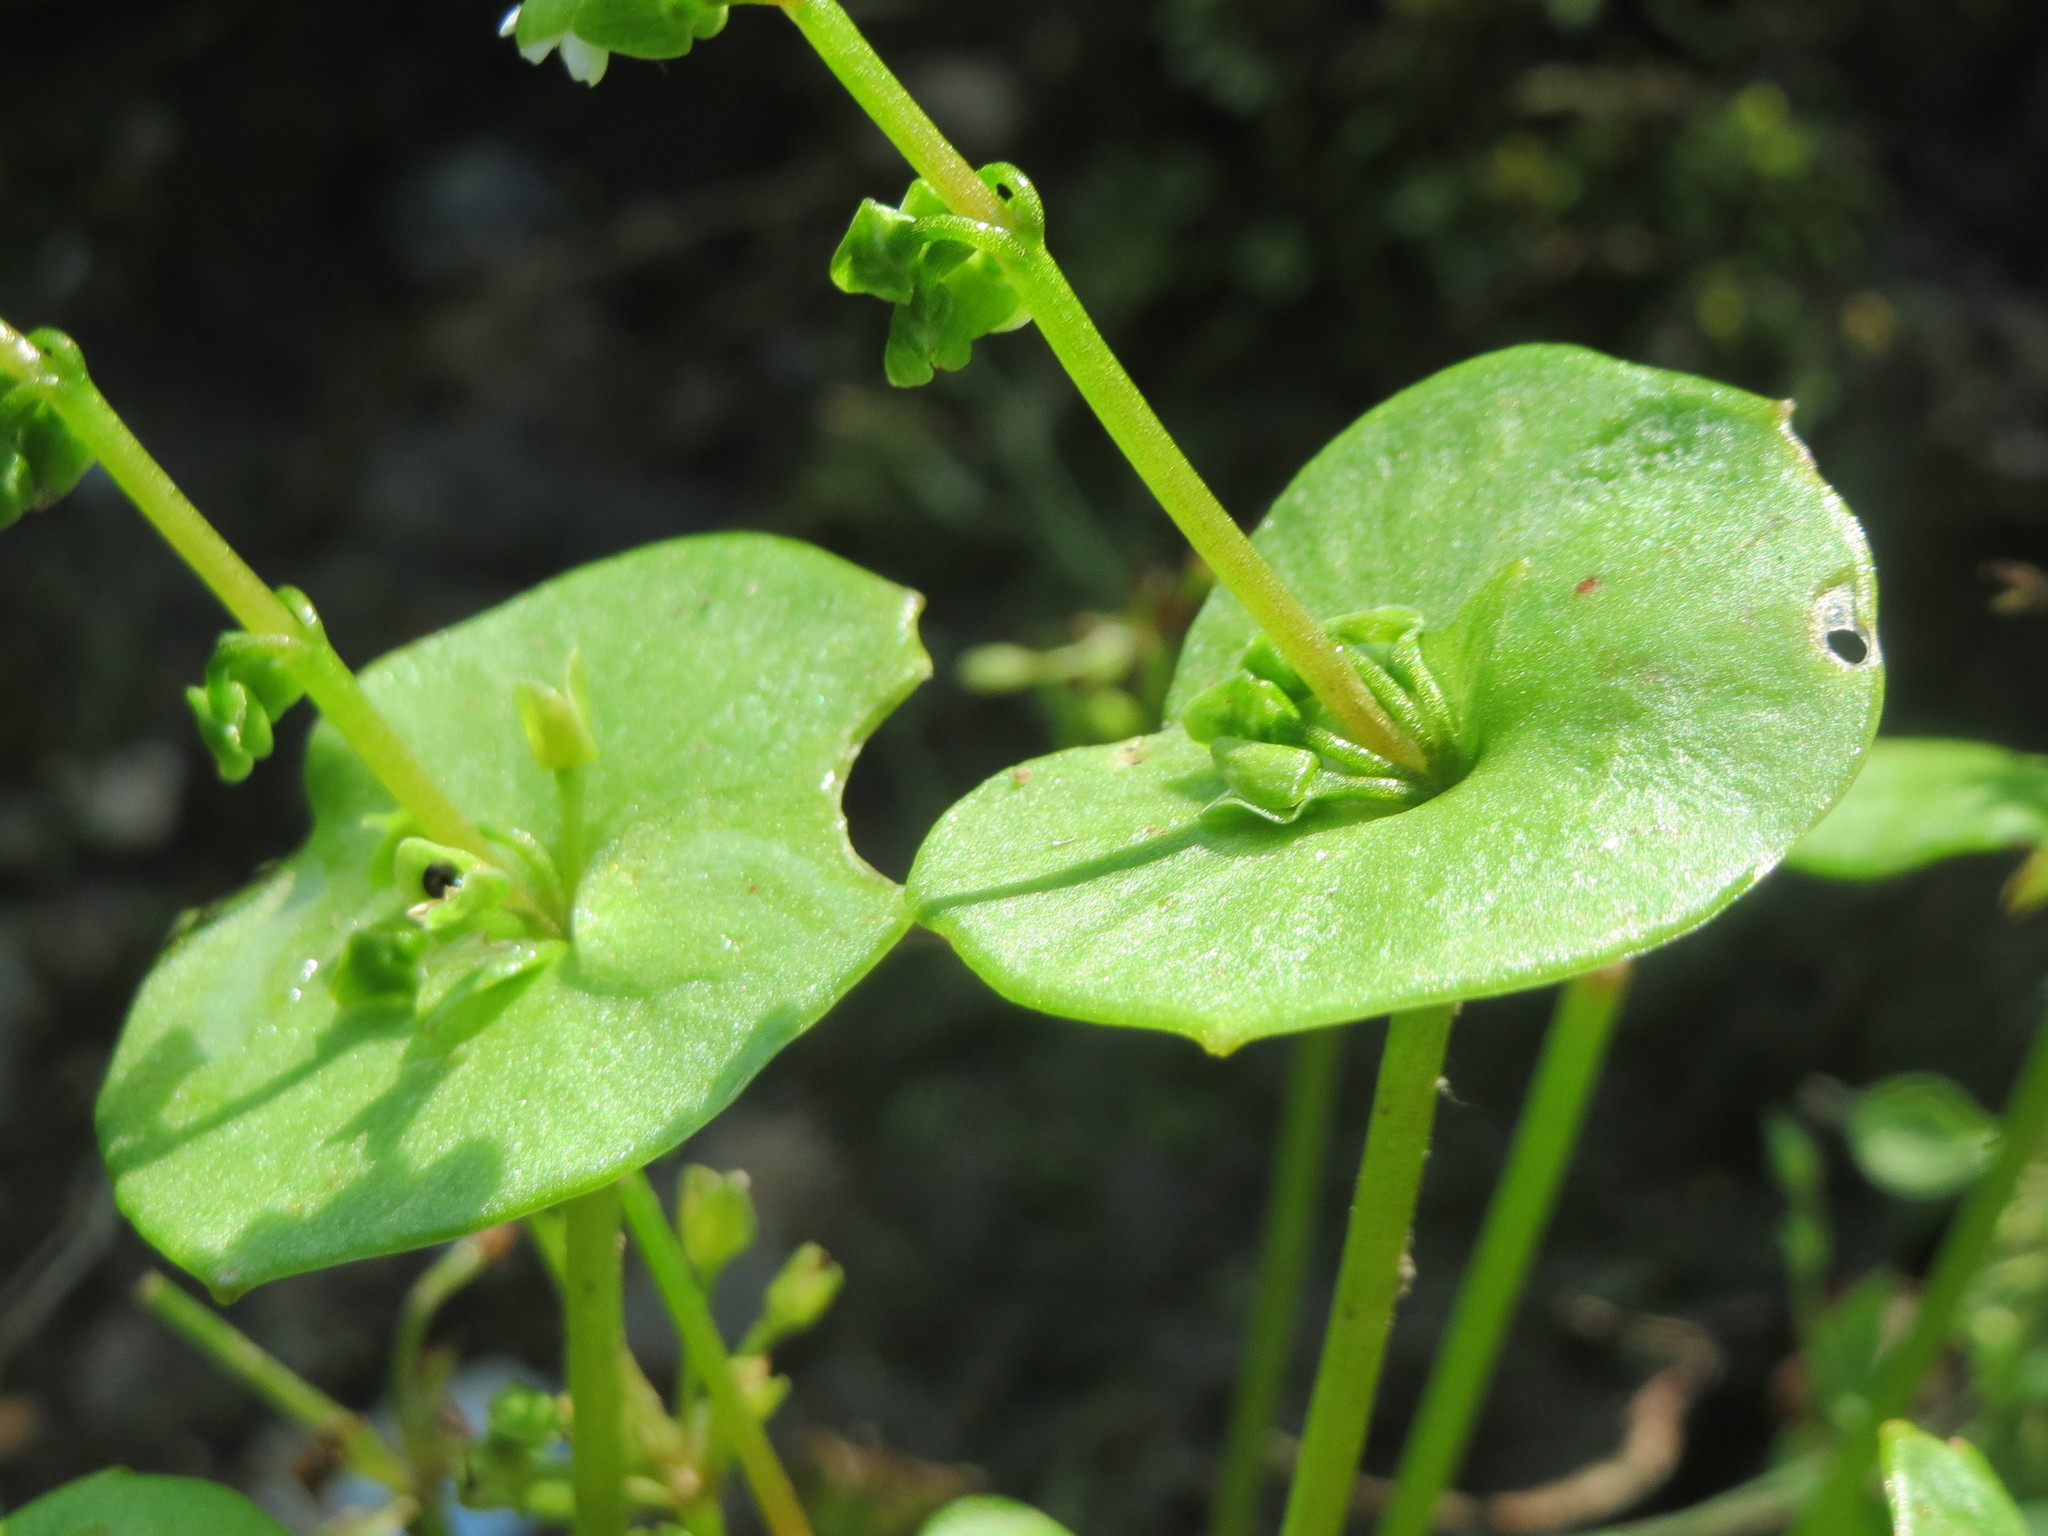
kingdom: Plantae
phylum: Tracheophyta
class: Magnoliopsida
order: Caryophyllales
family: Montiaceae
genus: Claytonia
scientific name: Claytonia perfoliata
